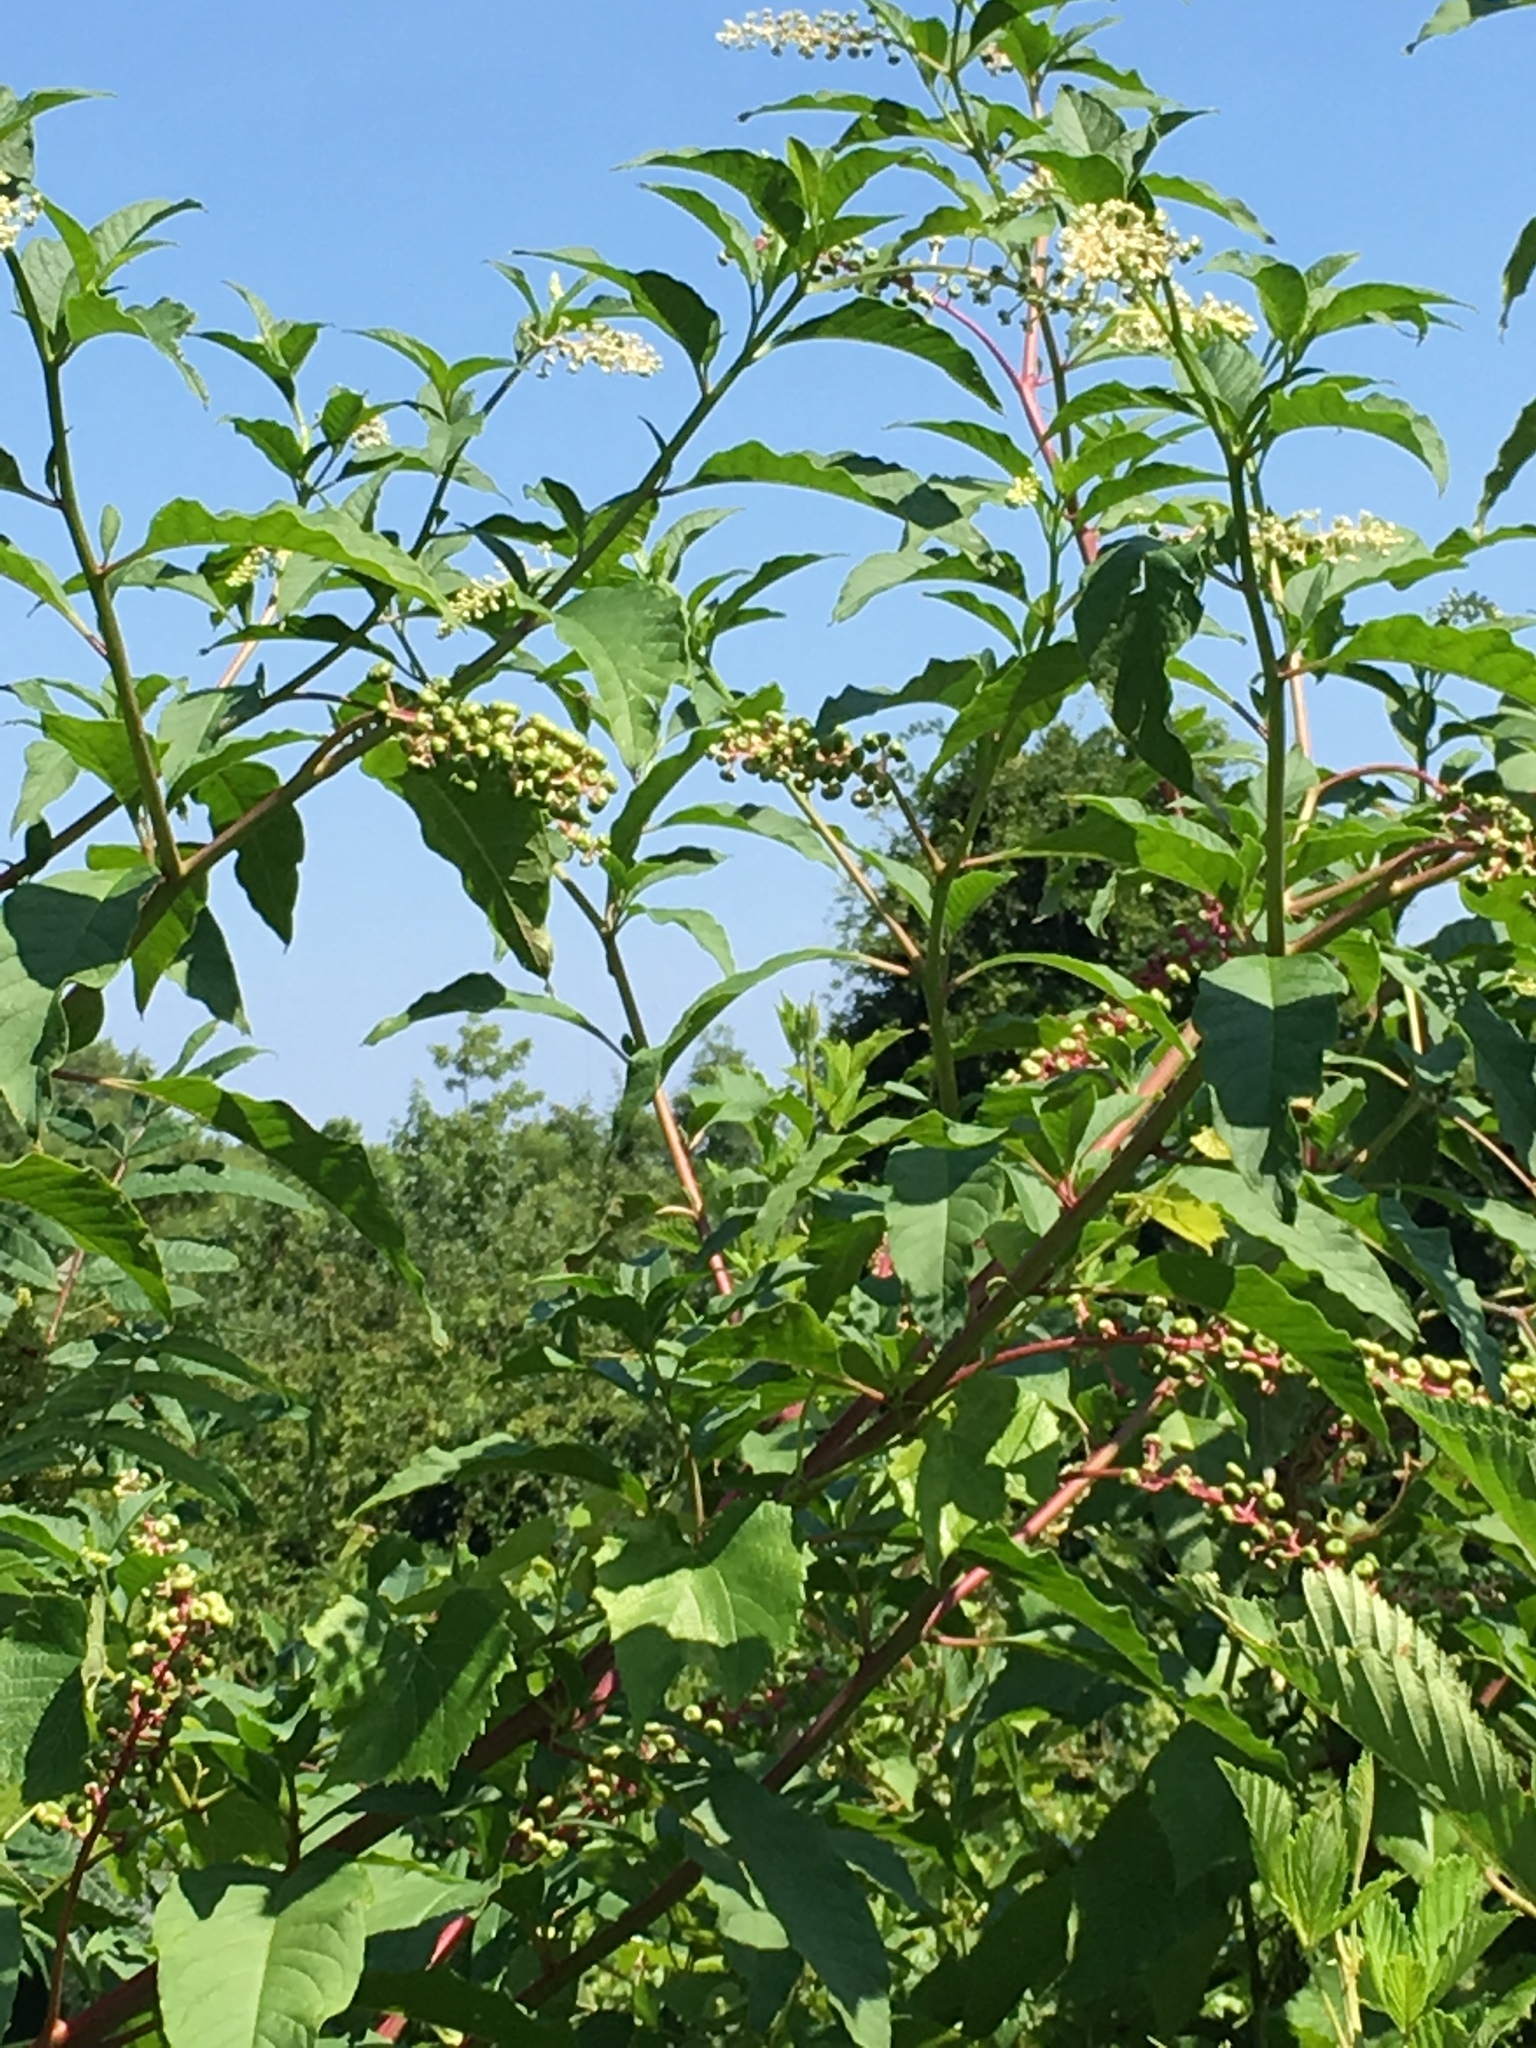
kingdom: Plantae
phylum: Tracheophyta
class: Magnoliopsida
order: Caryophyllales
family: Phytolaccaceae
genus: Phytolacca
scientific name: Phytolacca americana
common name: American pokeweed
